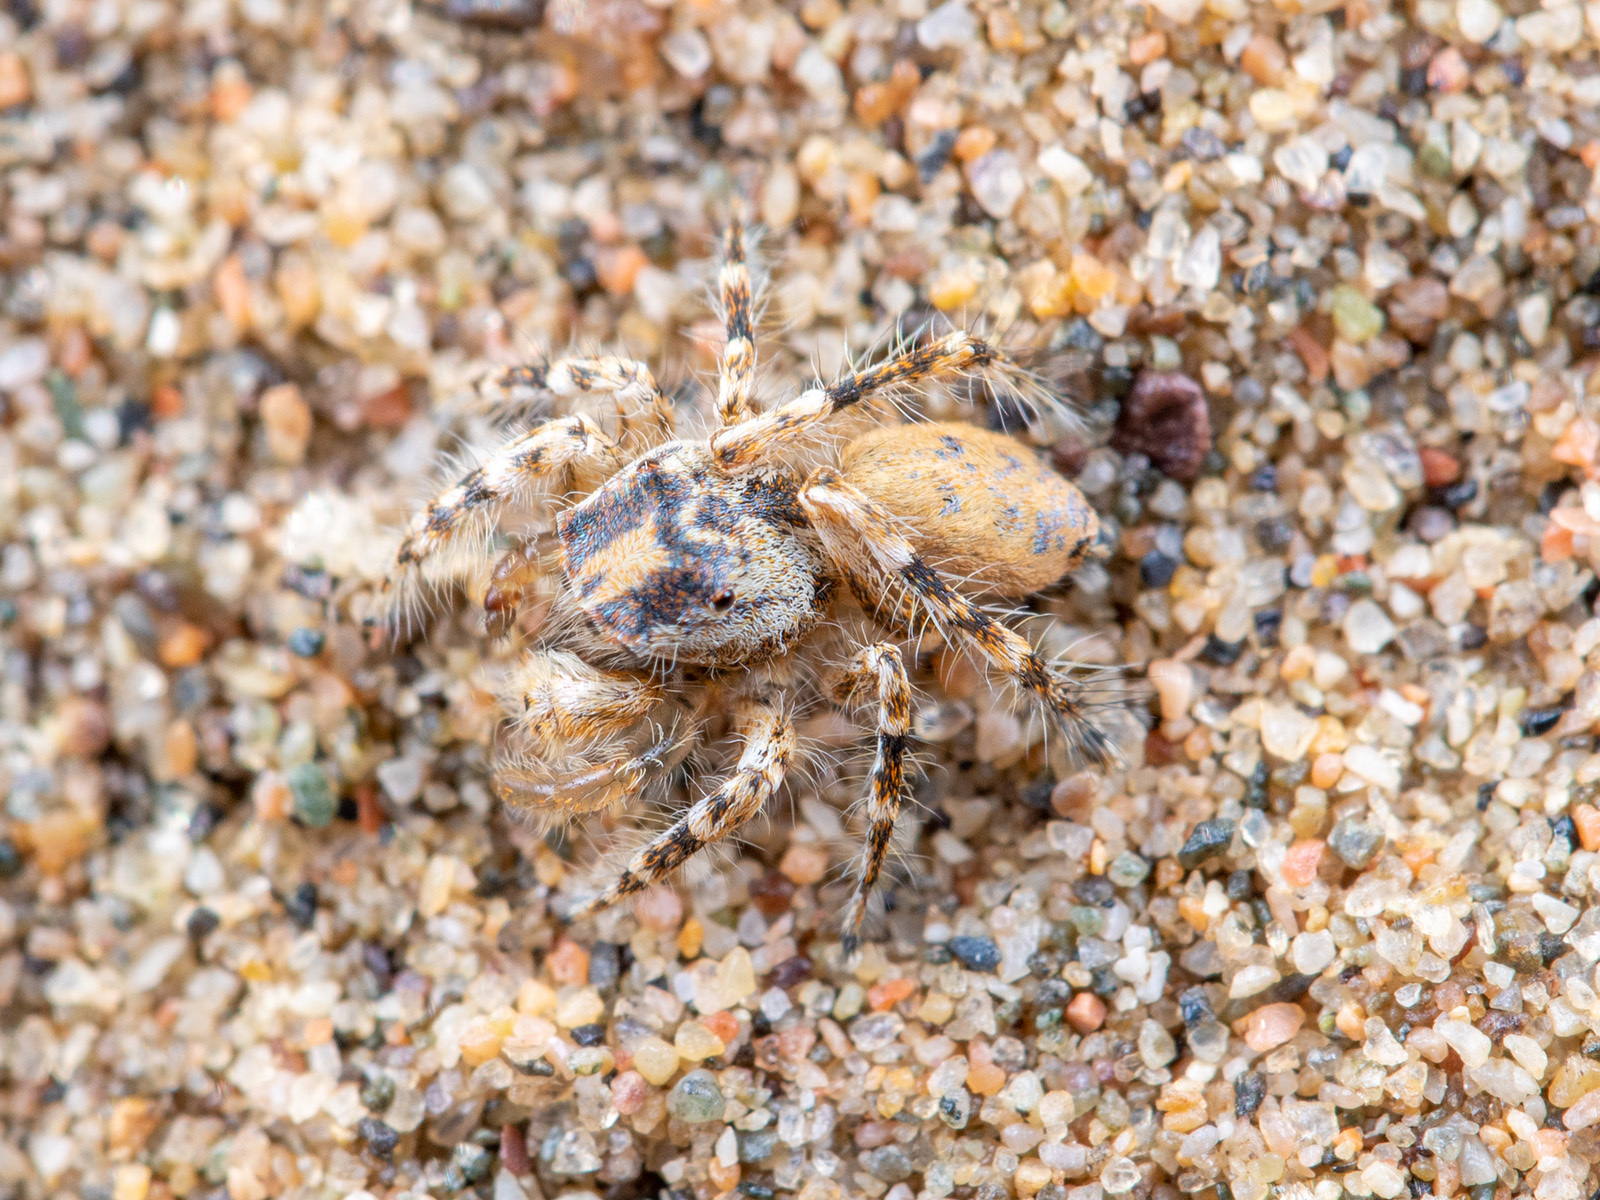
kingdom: Animalia
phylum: Arthropoda
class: Arachnida
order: Araneae
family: Salticidae
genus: Yllenus
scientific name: Yllenus turkestanicus
